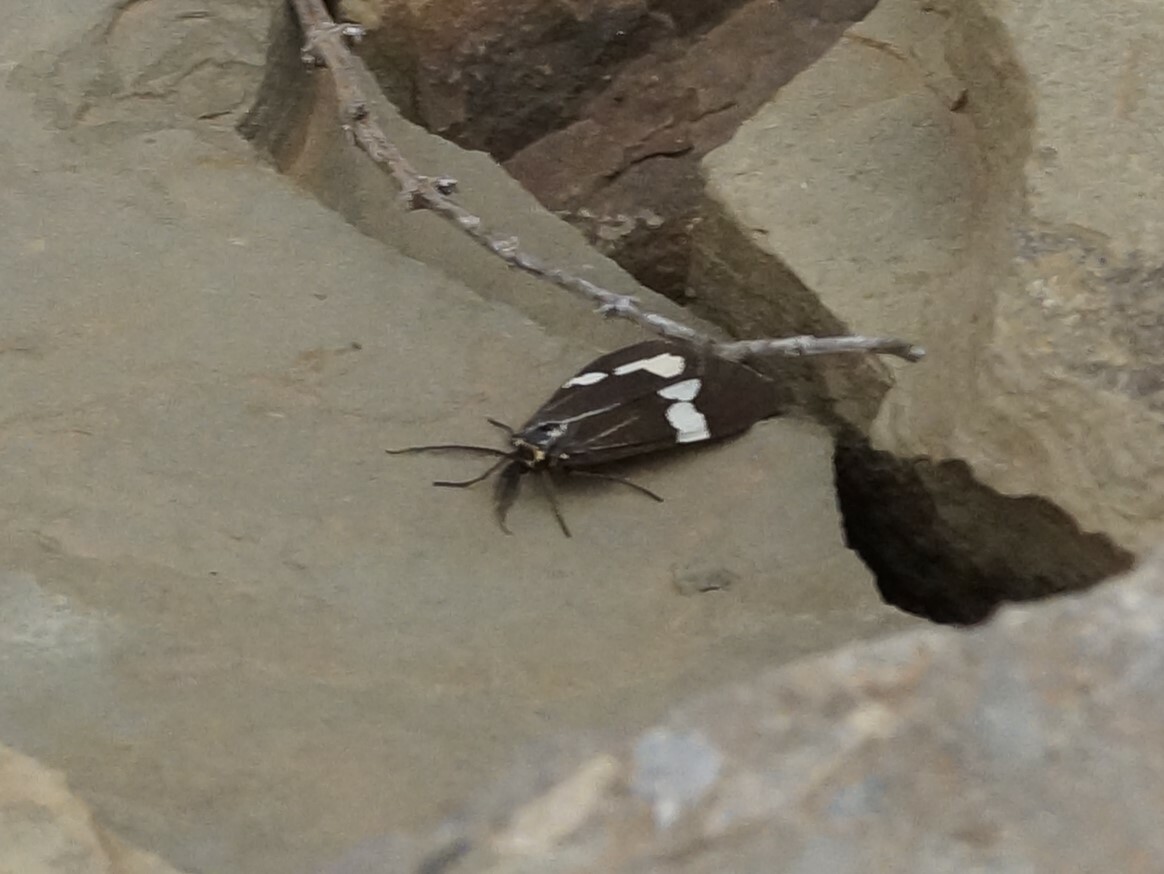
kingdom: Animalia
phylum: Arthropoda
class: Insecta
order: Lepidoptera
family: Erebidae
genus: Nyctemera
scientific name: Nyctemera amicus
